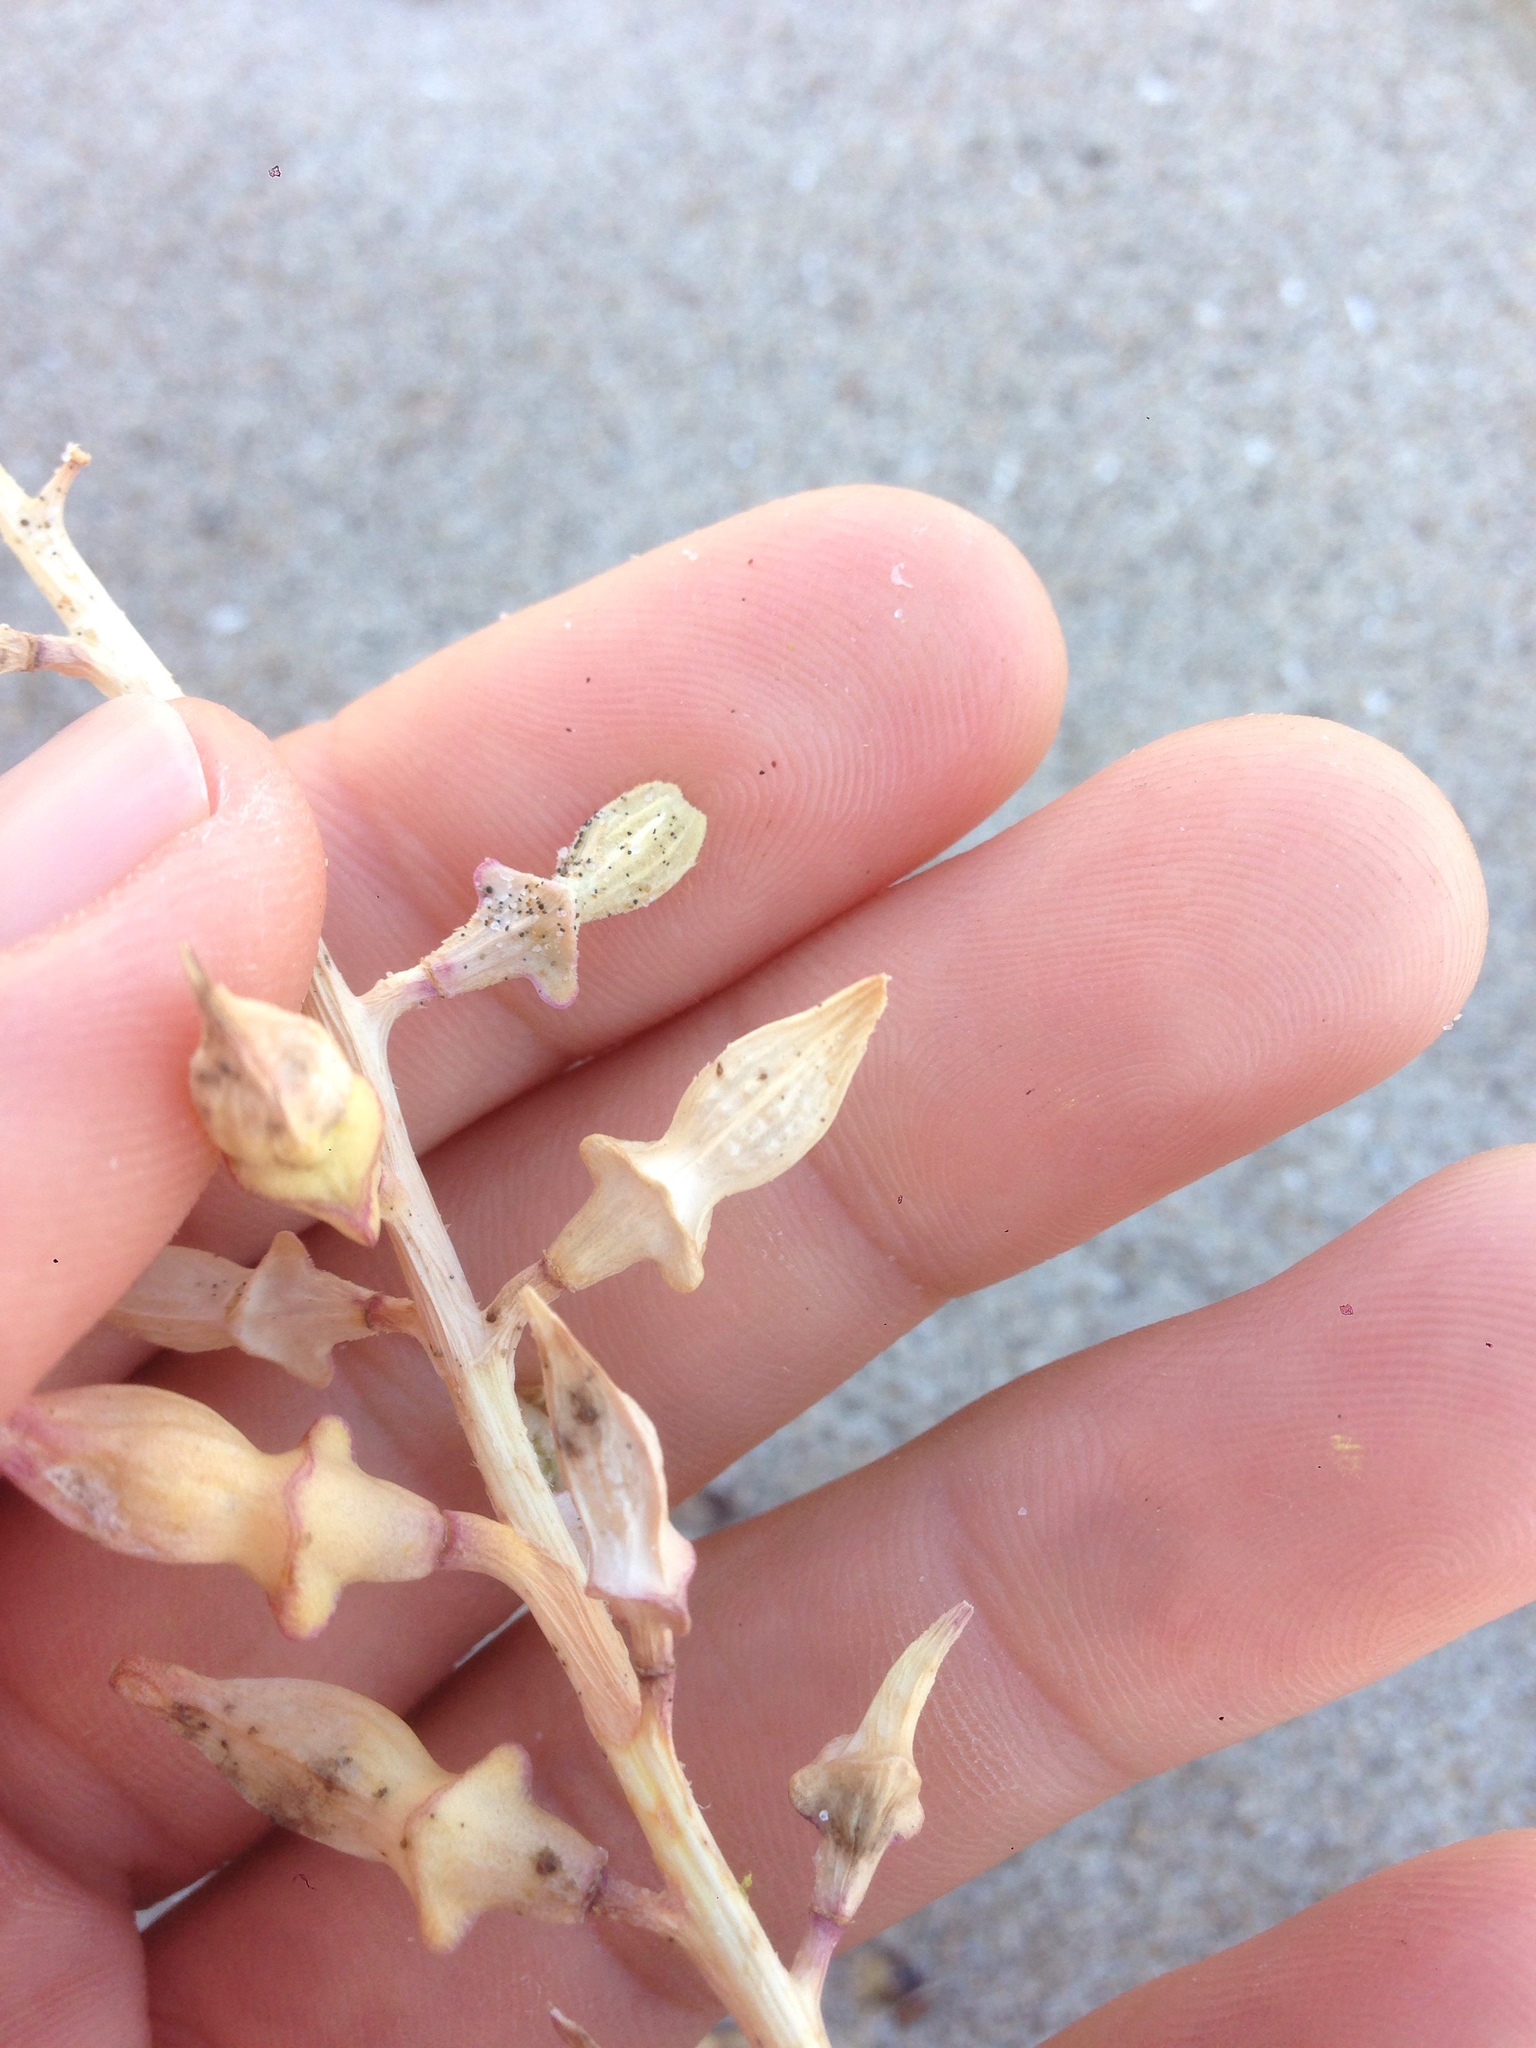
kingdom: Plantae
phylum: Tracheophyta
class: Magnoliopsida
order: Brassicales
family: Brassicaceae
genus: Cakile
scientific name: Cakile maritima
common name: Sea rocket
